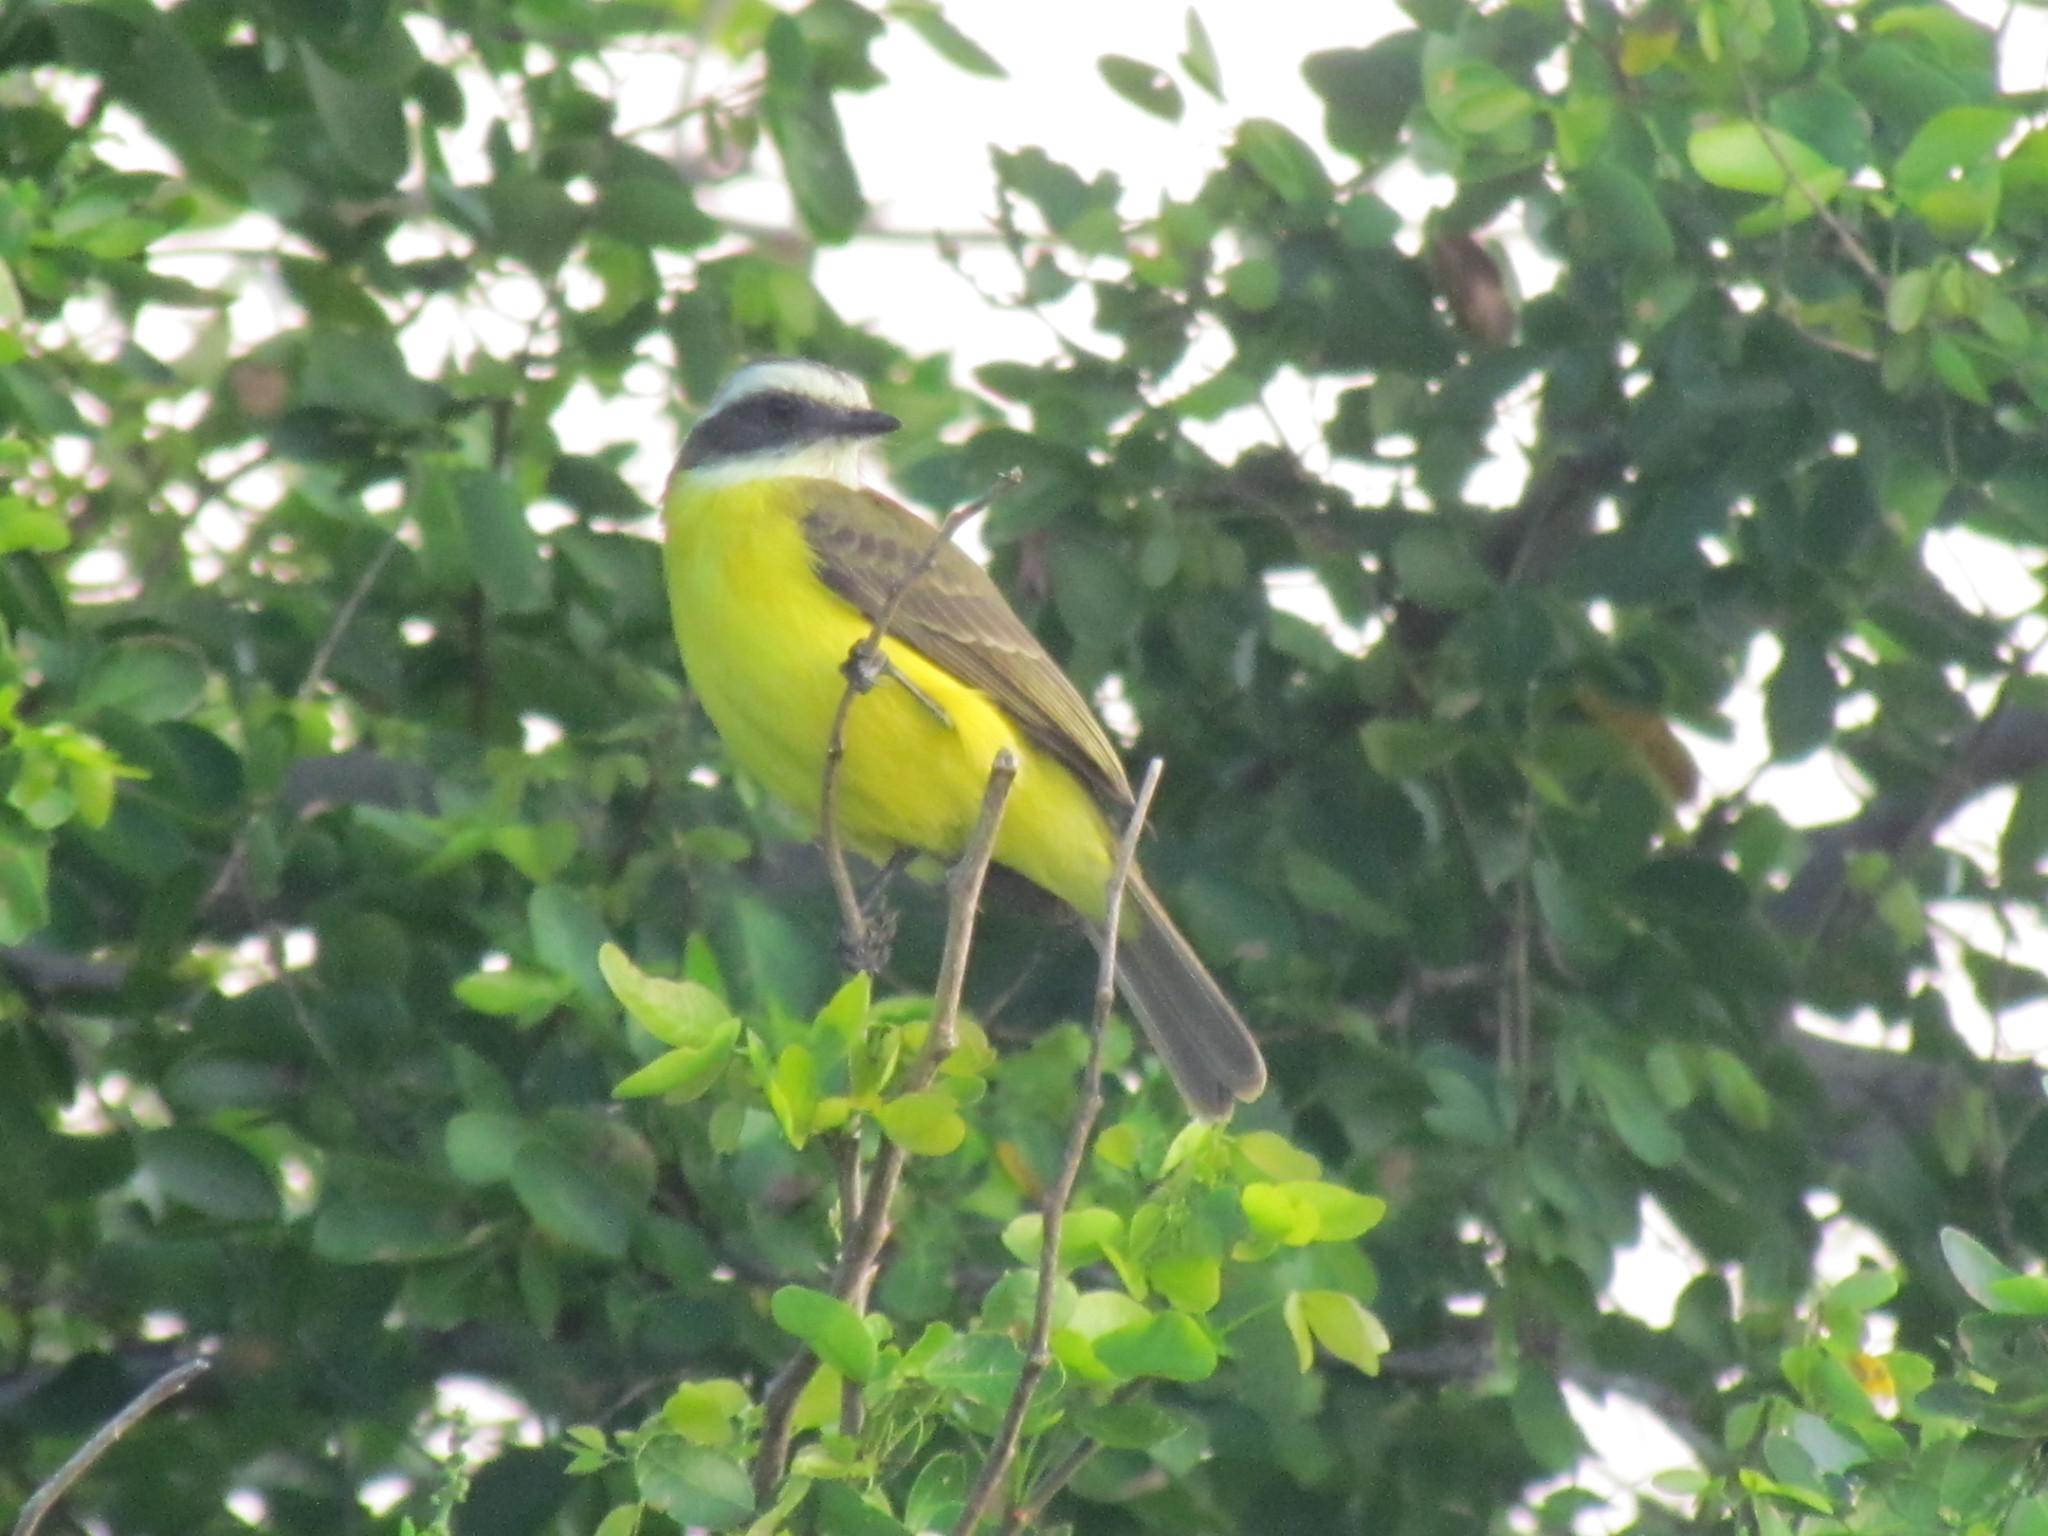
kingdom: Animalia
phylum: Chordata
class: Aves
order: Passeriformes
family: Tyrannidae
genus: Myiozetetes
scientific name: Myiozetetes similis
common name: Social flycatcher
